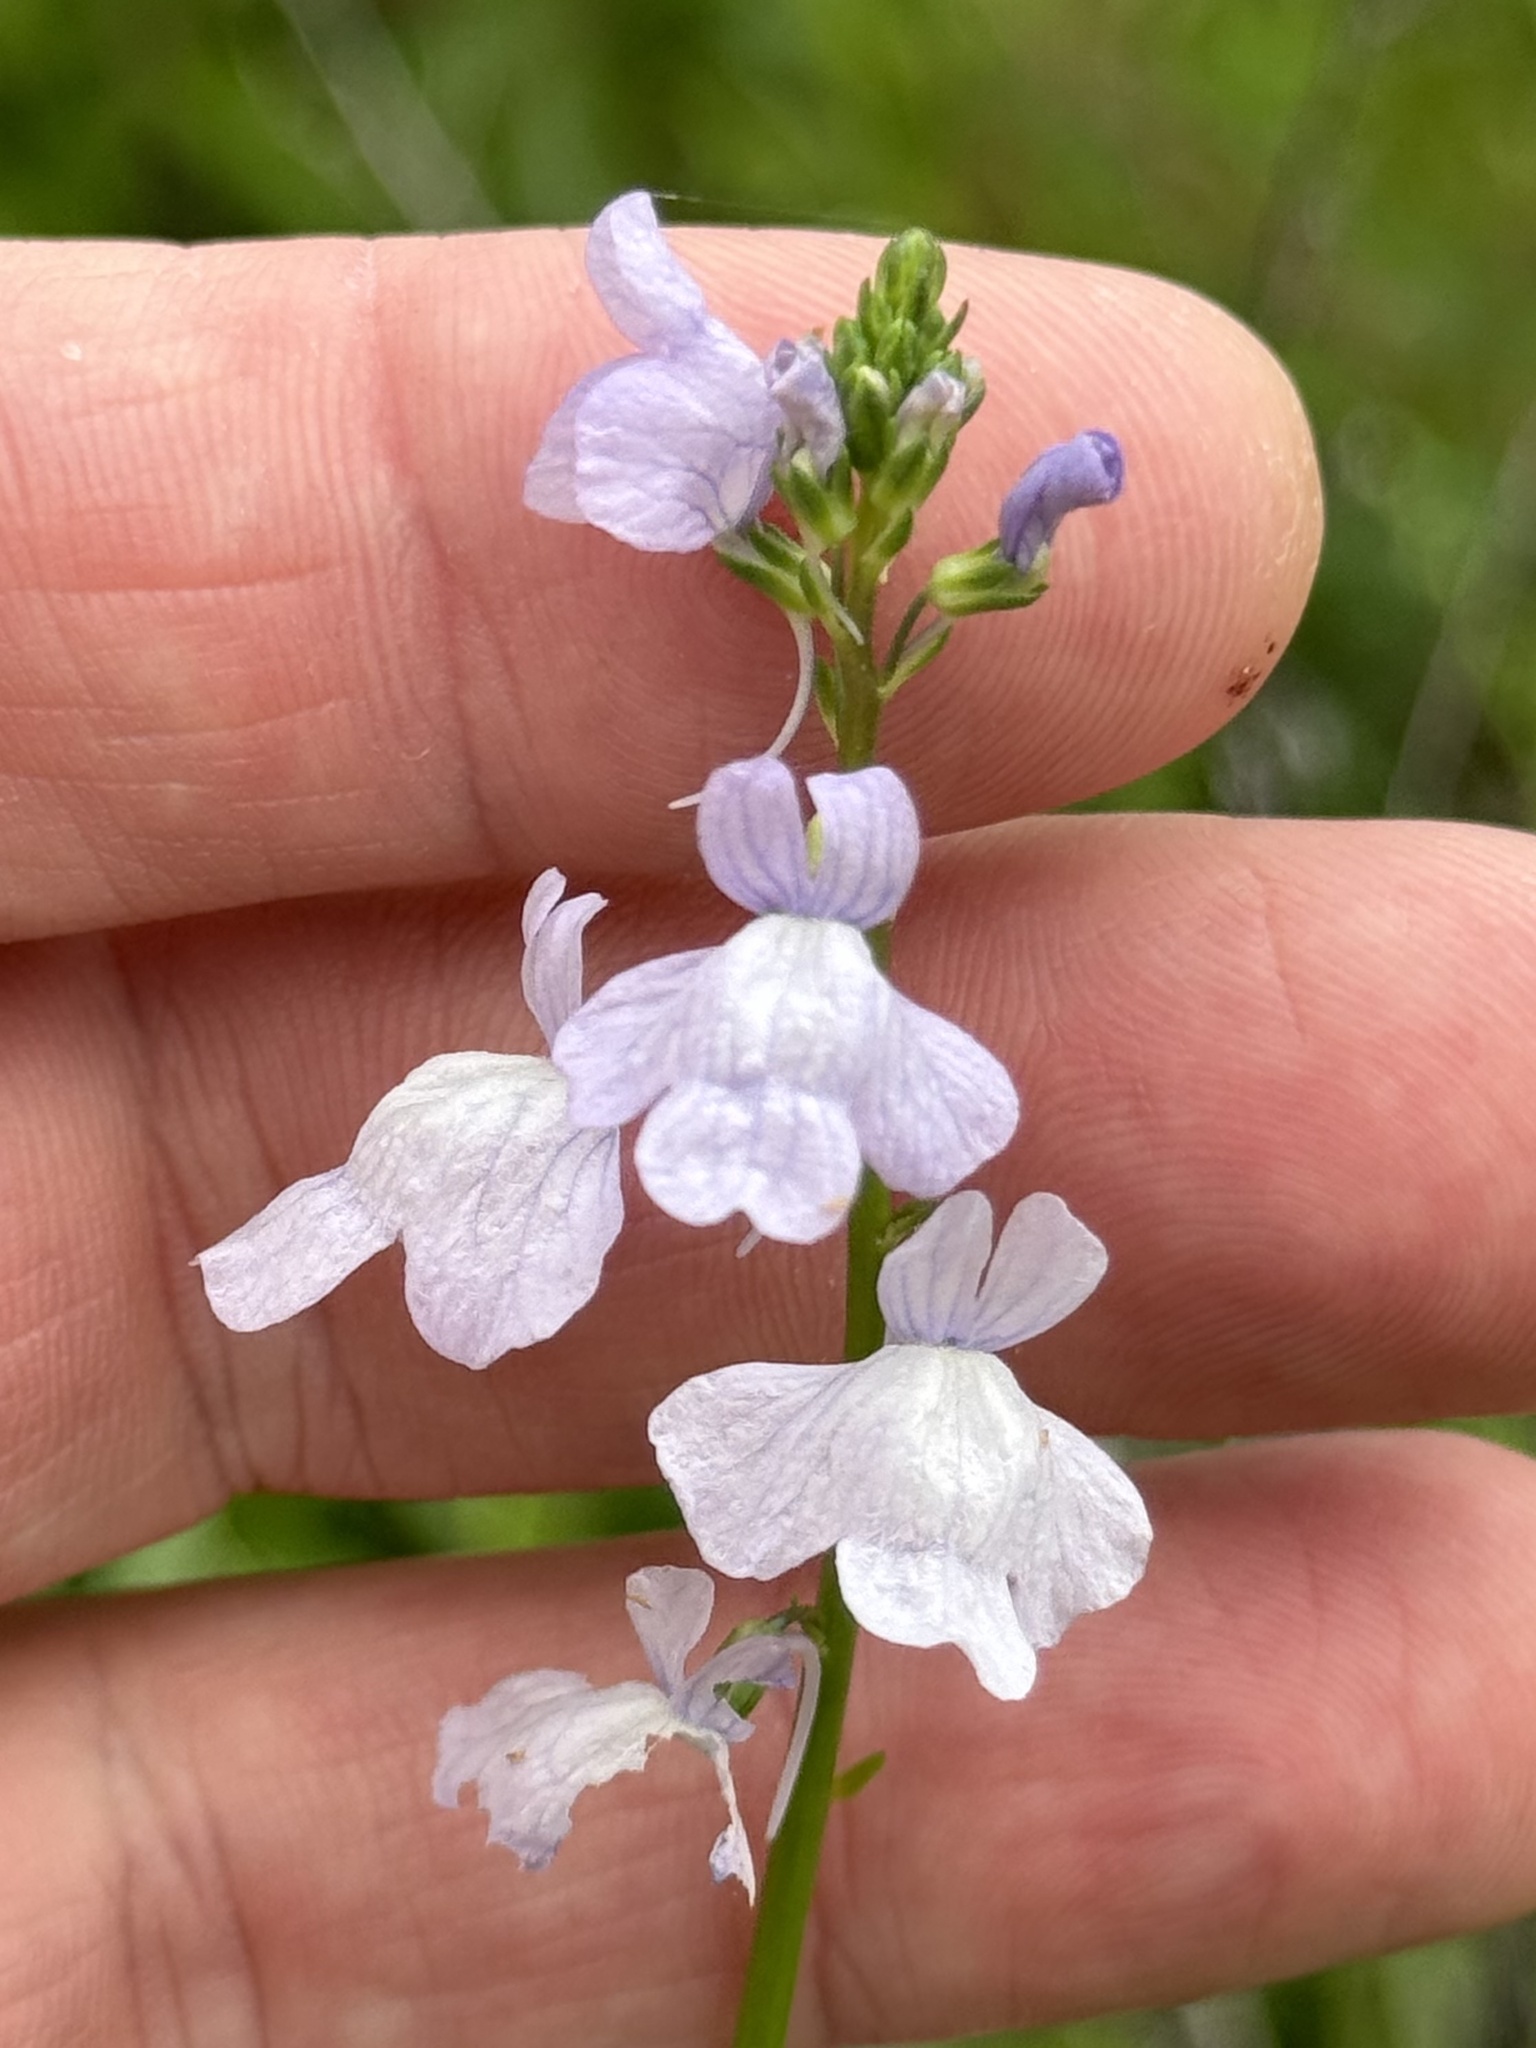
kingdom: Plantae
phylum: Tracheophyta
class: Magnoliopsida
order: Lamiales
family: Plantaginaceae
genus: Nuttallanthus
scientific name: Nuttallanthus texanus
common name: Texas toadflax
